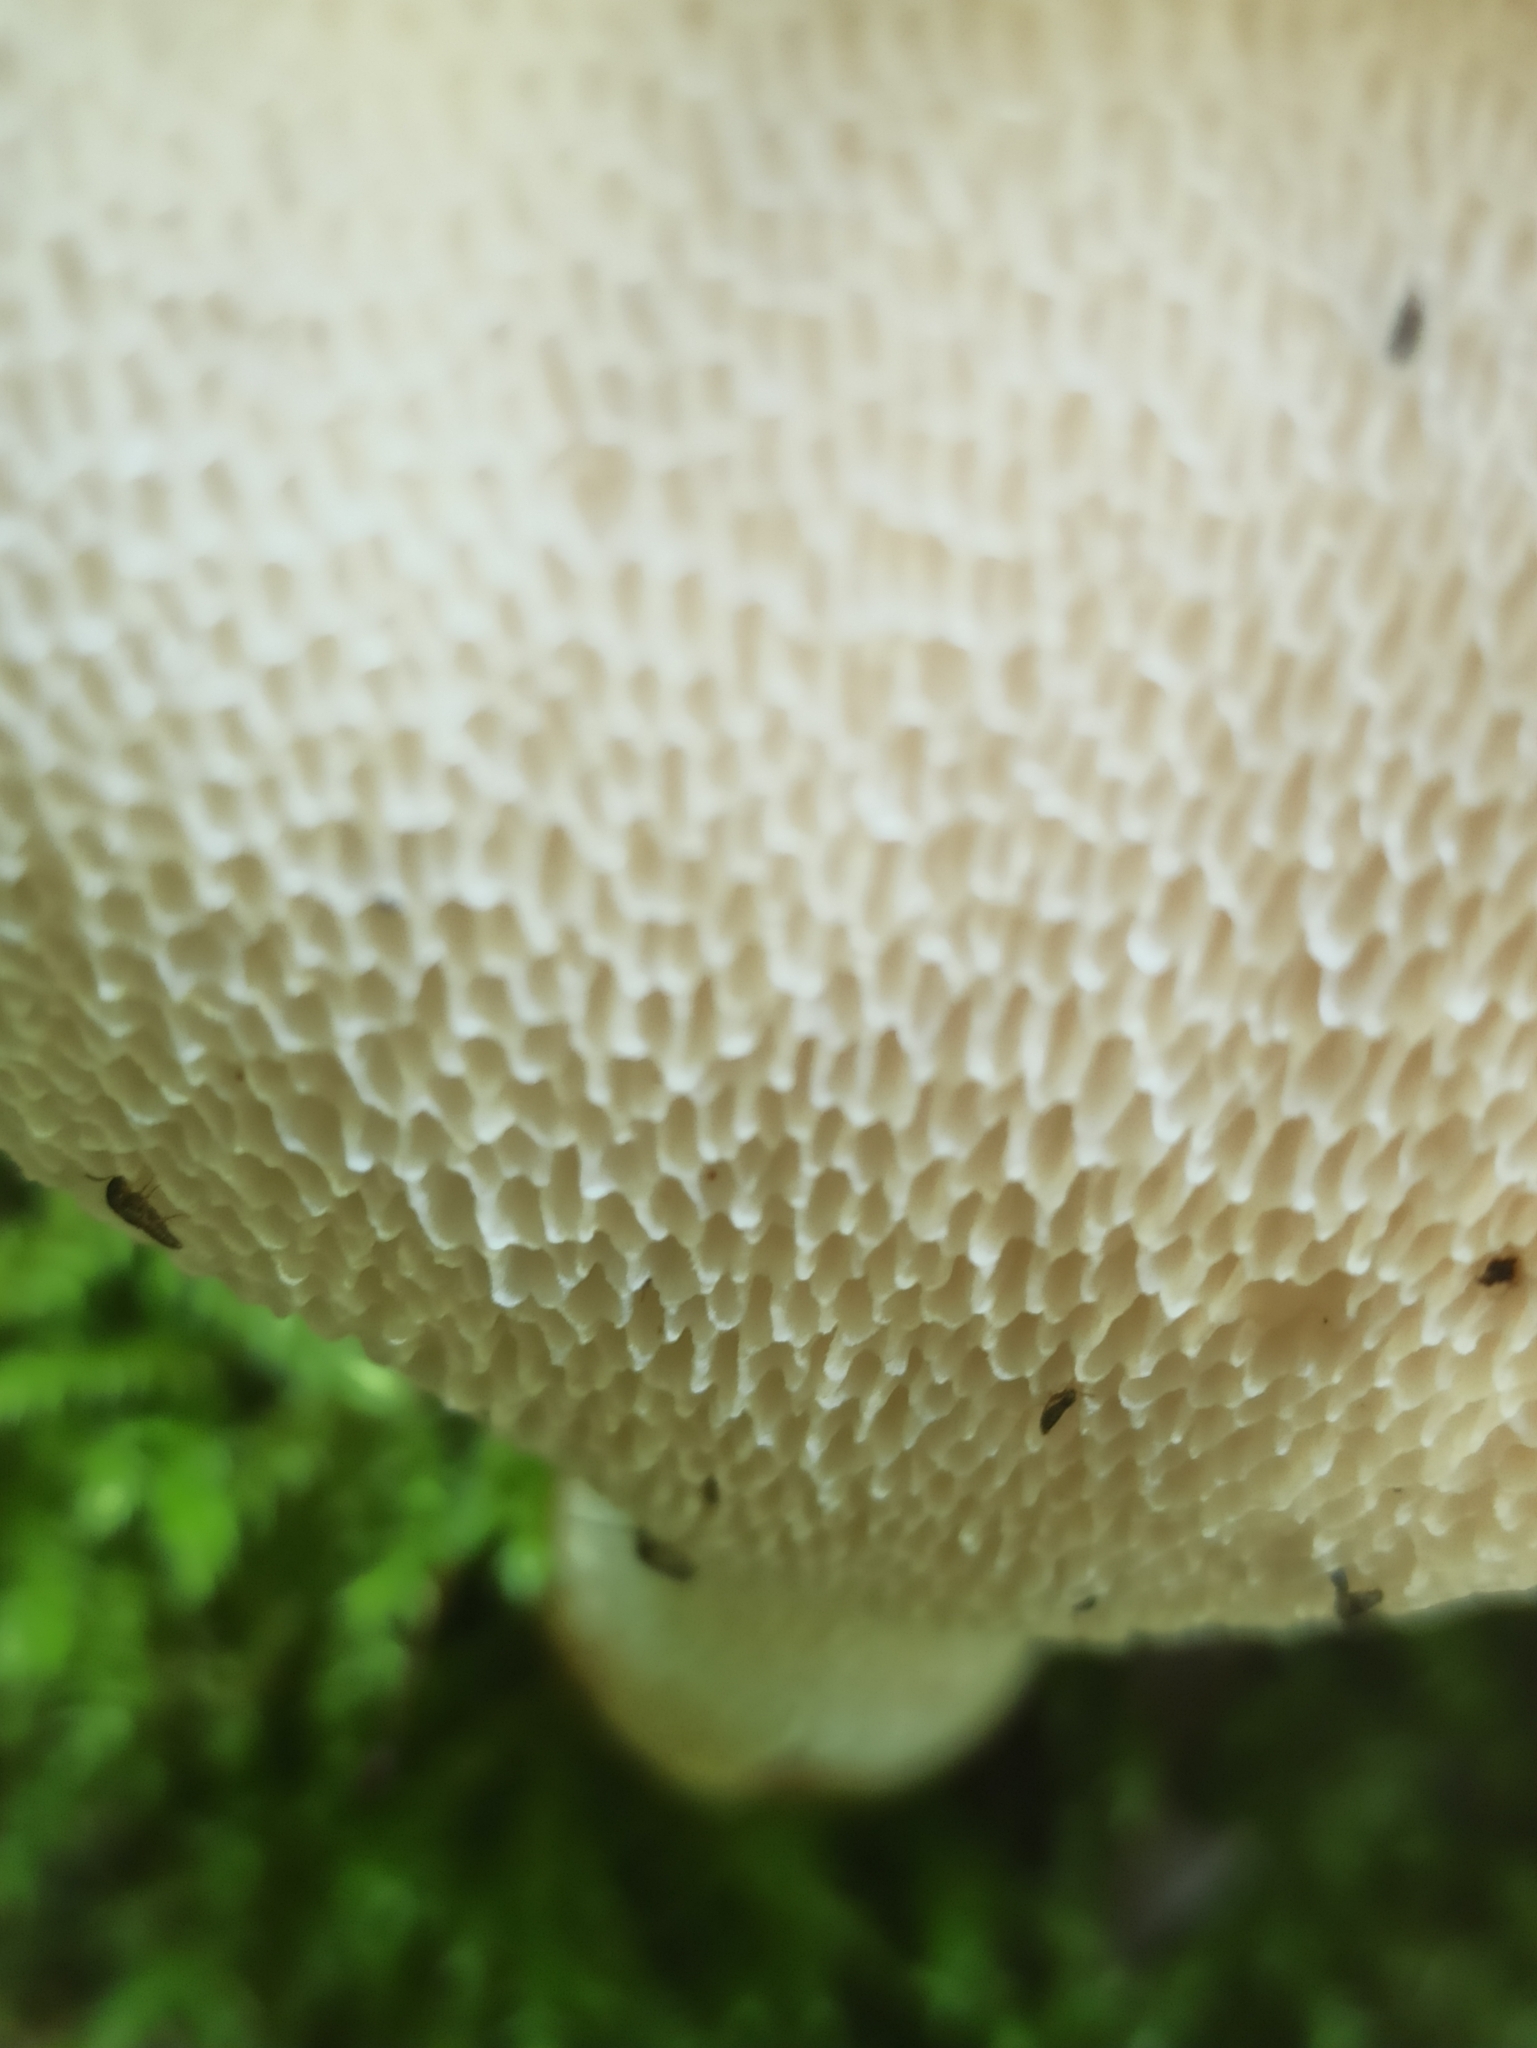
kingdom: Fungi
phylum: Basidiomycota
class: Agaricomycetes
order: Polyporales
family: Polyporaceae
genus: Cerioporus
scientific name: Cerioporus squamosus
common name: Dryad's saddle
